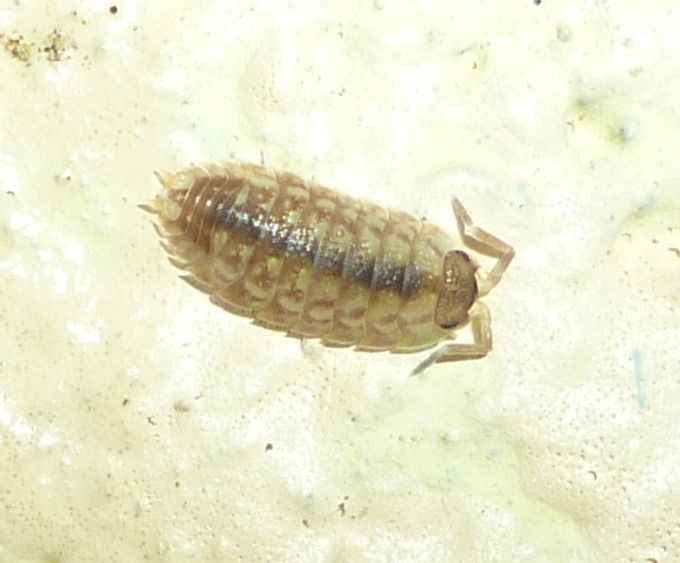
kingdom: Animalia
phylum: Arthropoda
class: Malacostraca
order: Isopoda
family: Porcellionidae
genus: Porcellio
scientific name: Porcellio spinicornis
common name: Painted woodlouse
